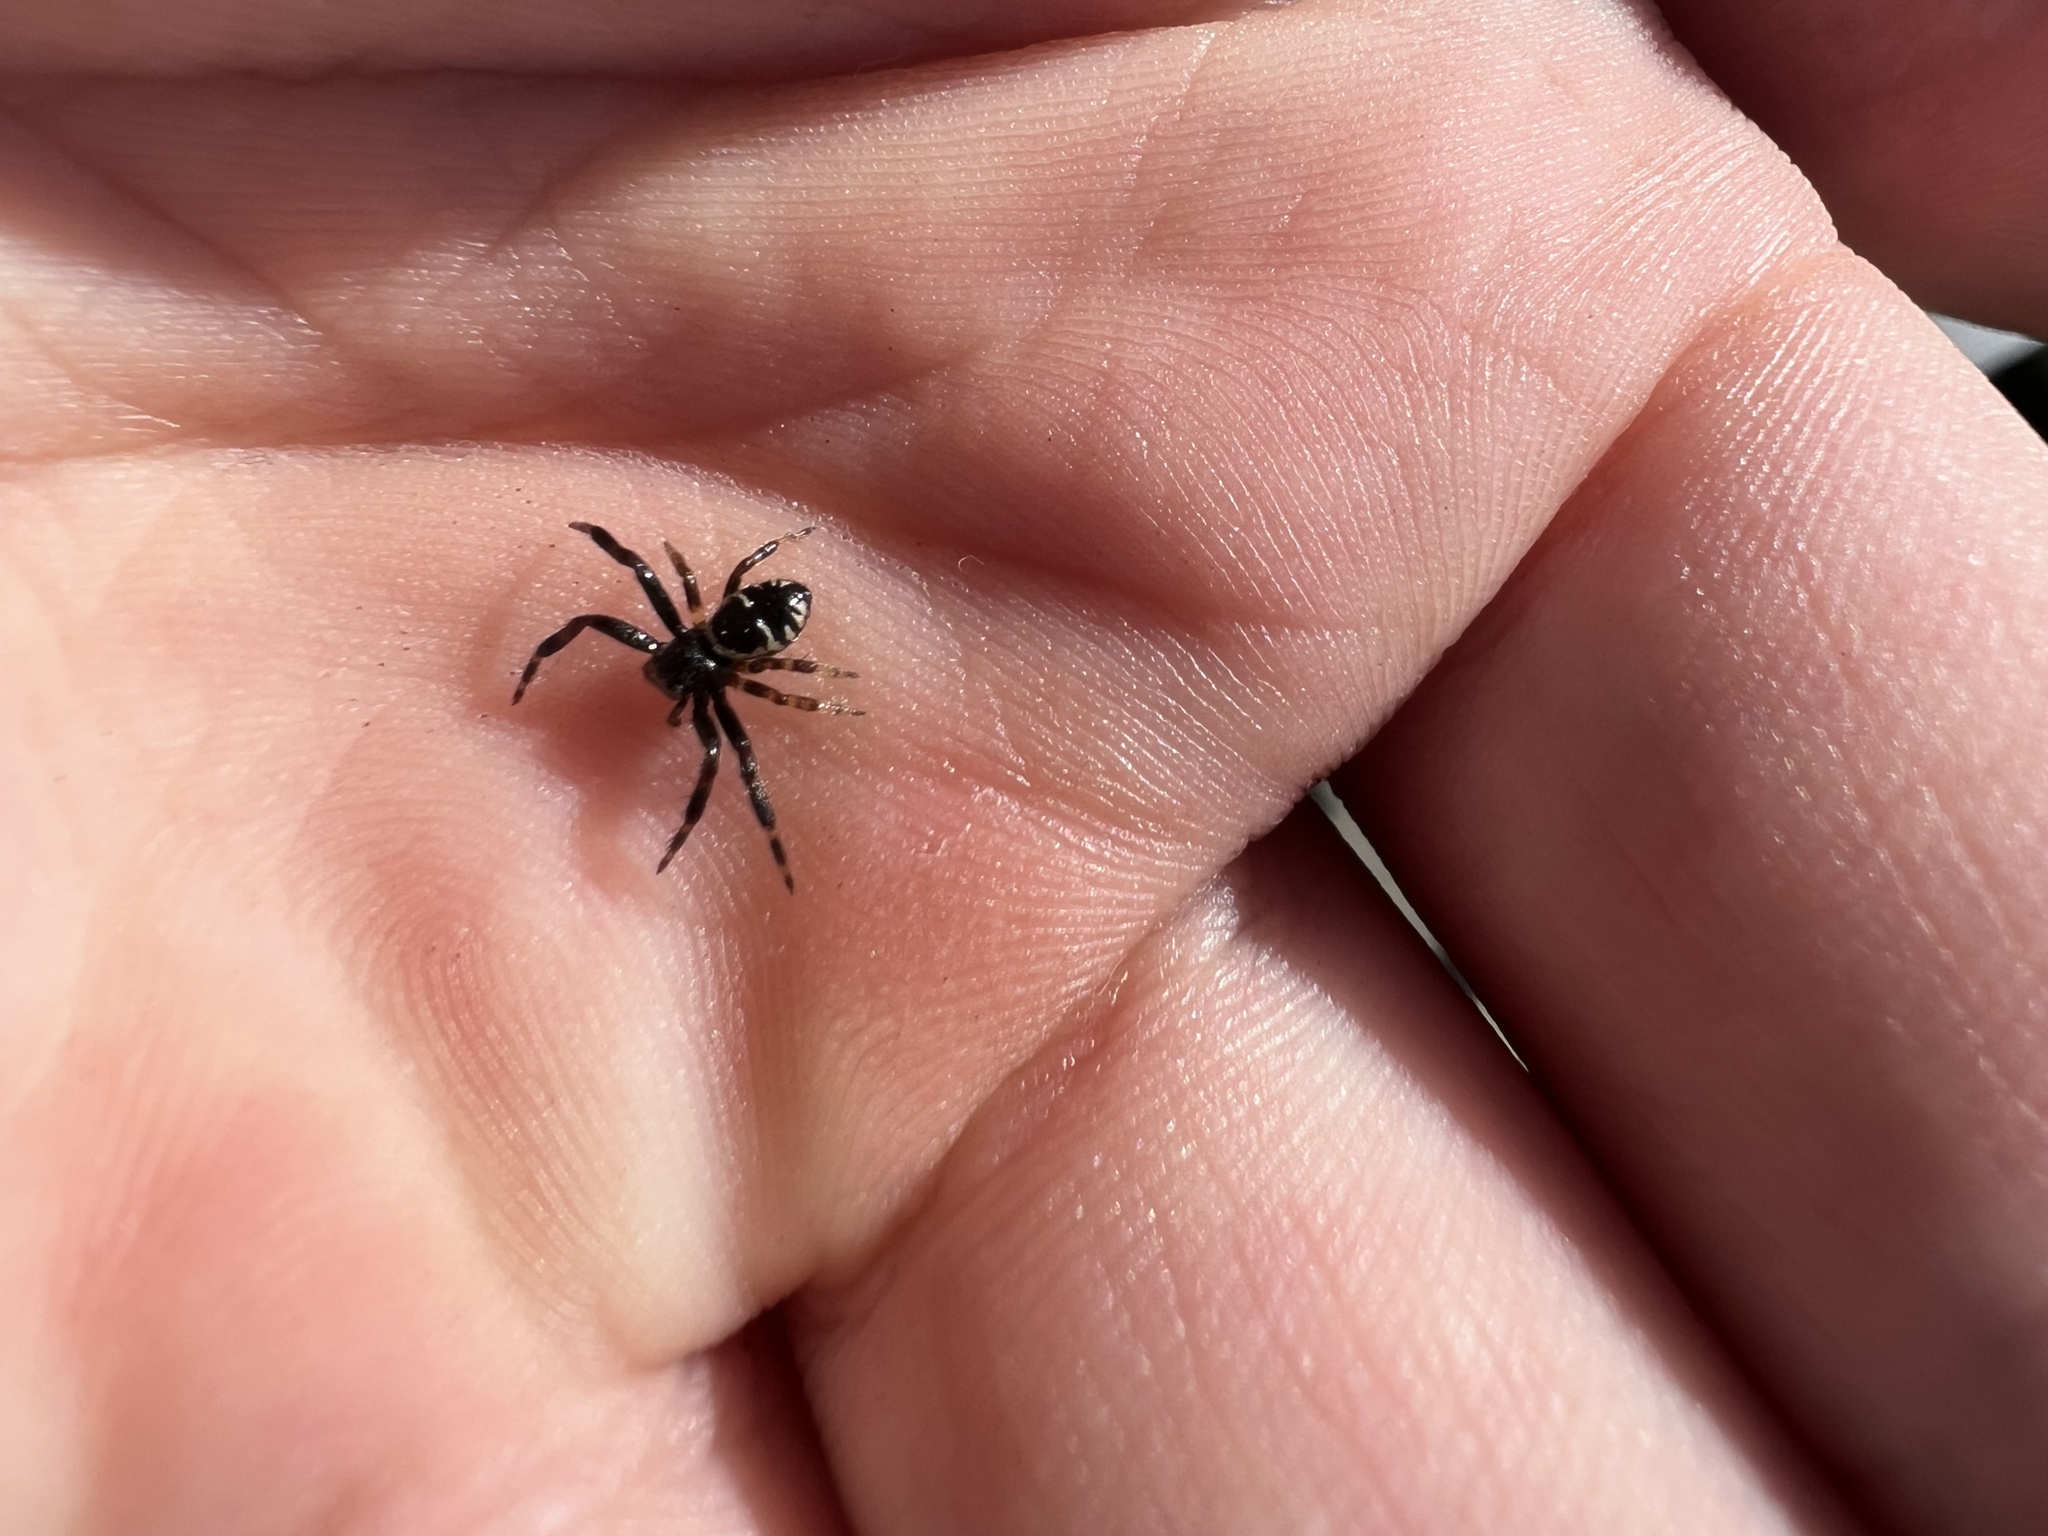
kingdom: Animalia
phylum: Arthropoda
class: Arachnida
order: Araneae
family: Thomisidae
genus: Synema
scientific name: Synema globosum
